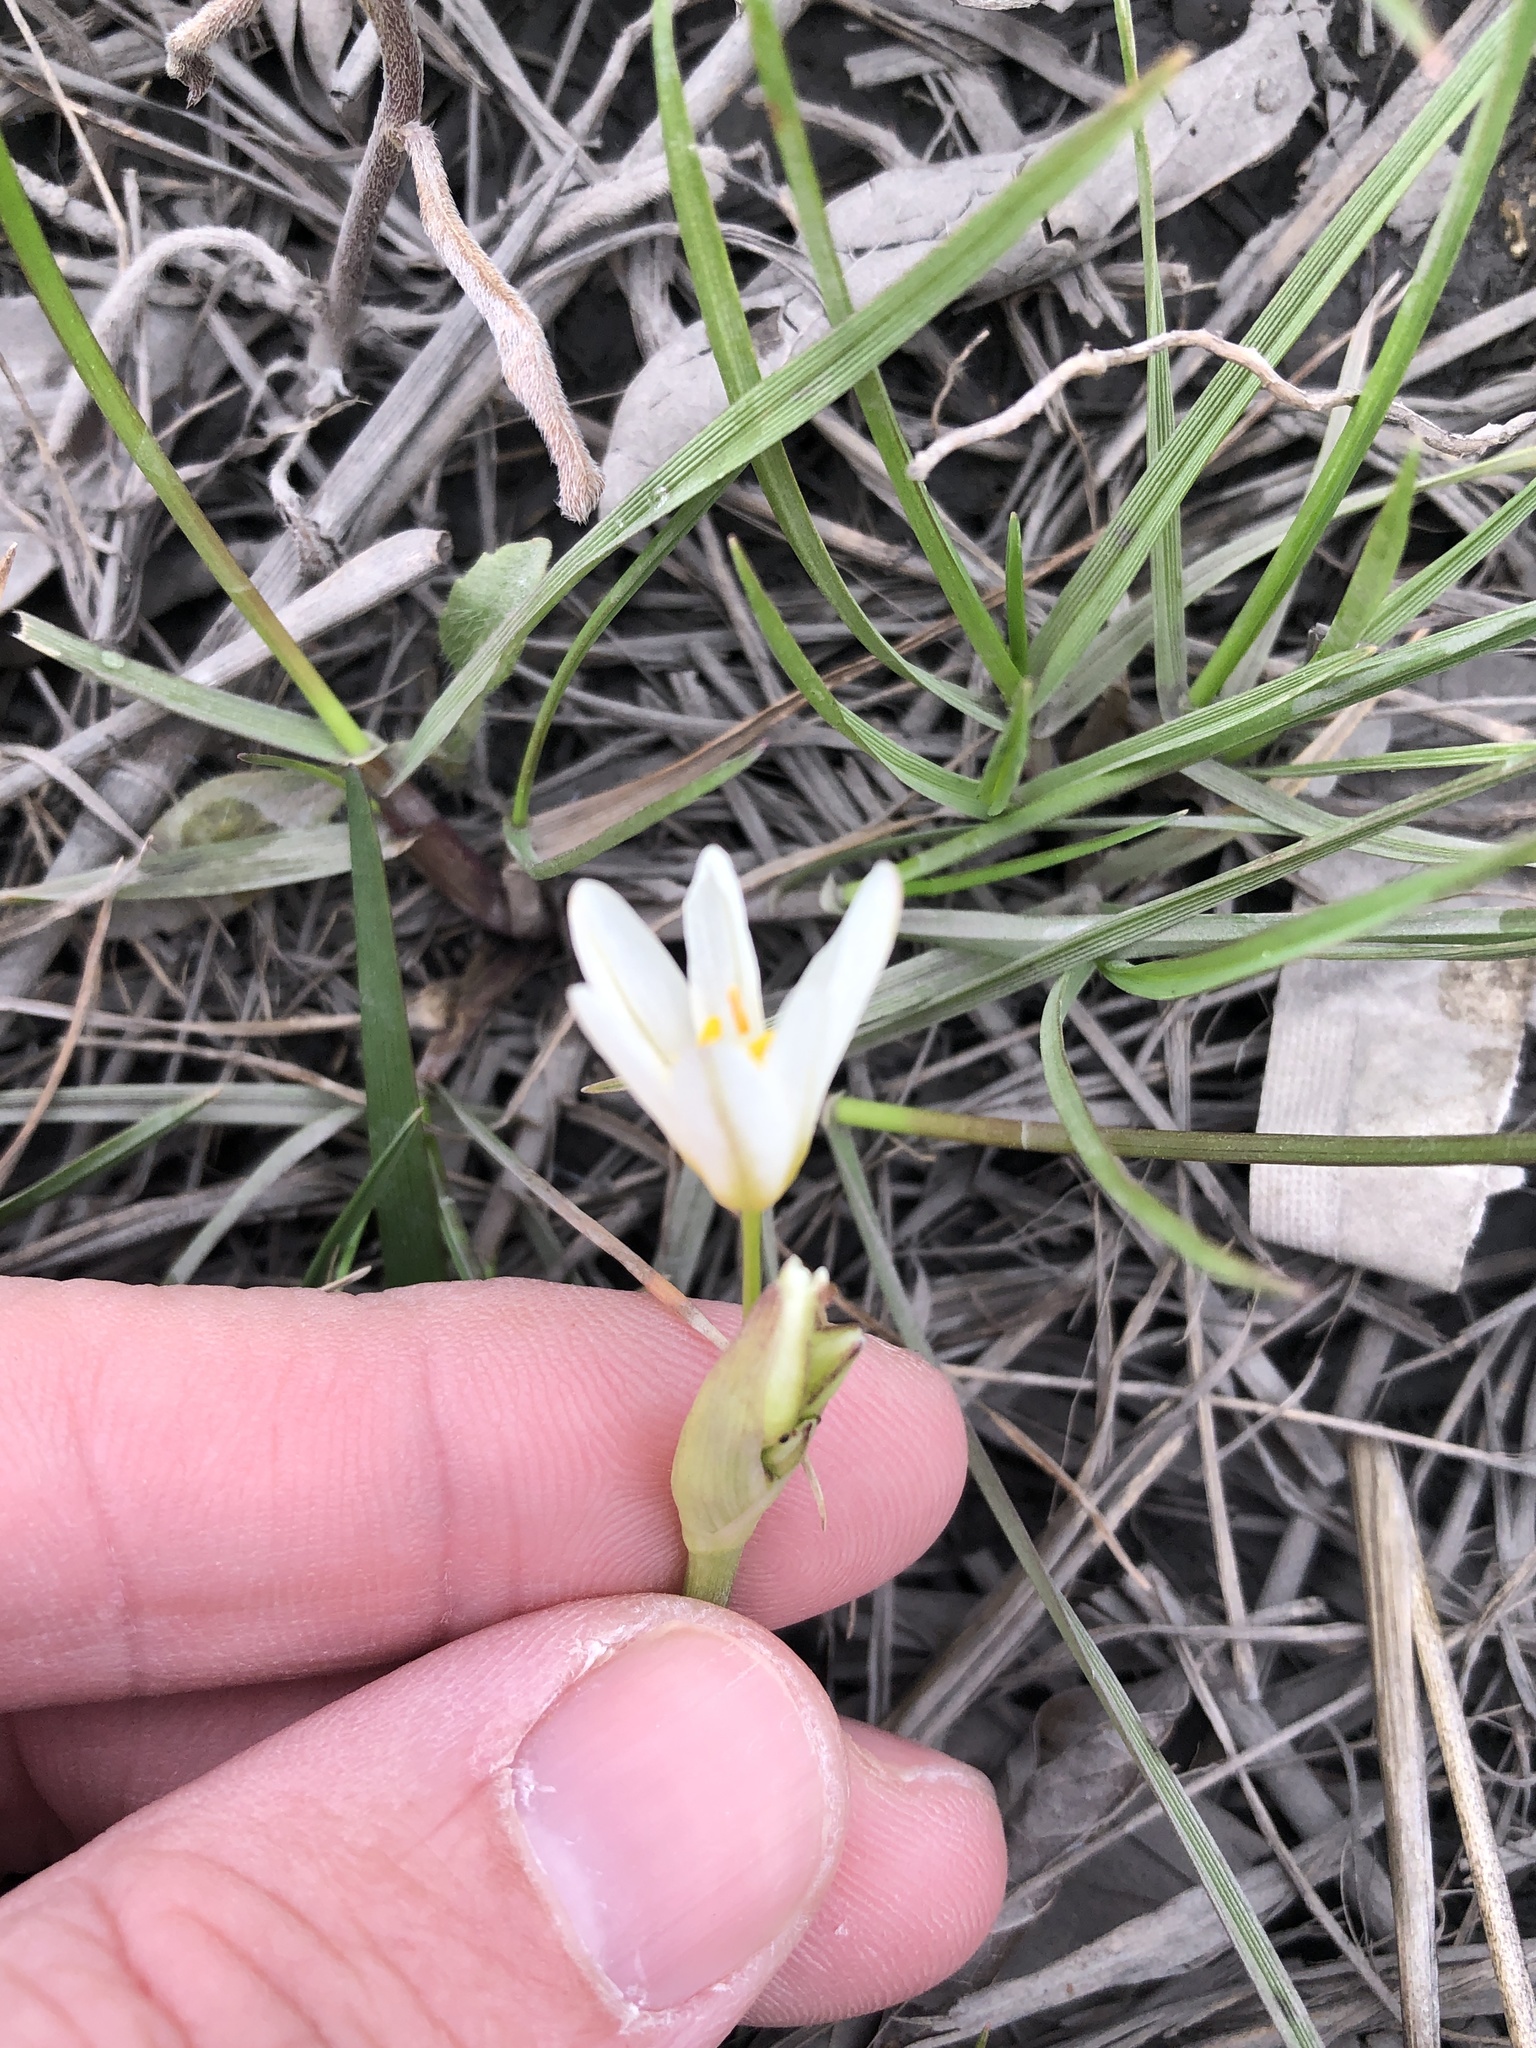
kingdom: Plantae
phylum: Tracheophyta
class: Liliopsida
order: Asparagales
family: Amaryllidaceae
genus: Nothoscordum
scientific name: Nothoscordum bivalve
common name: Crow-poison
